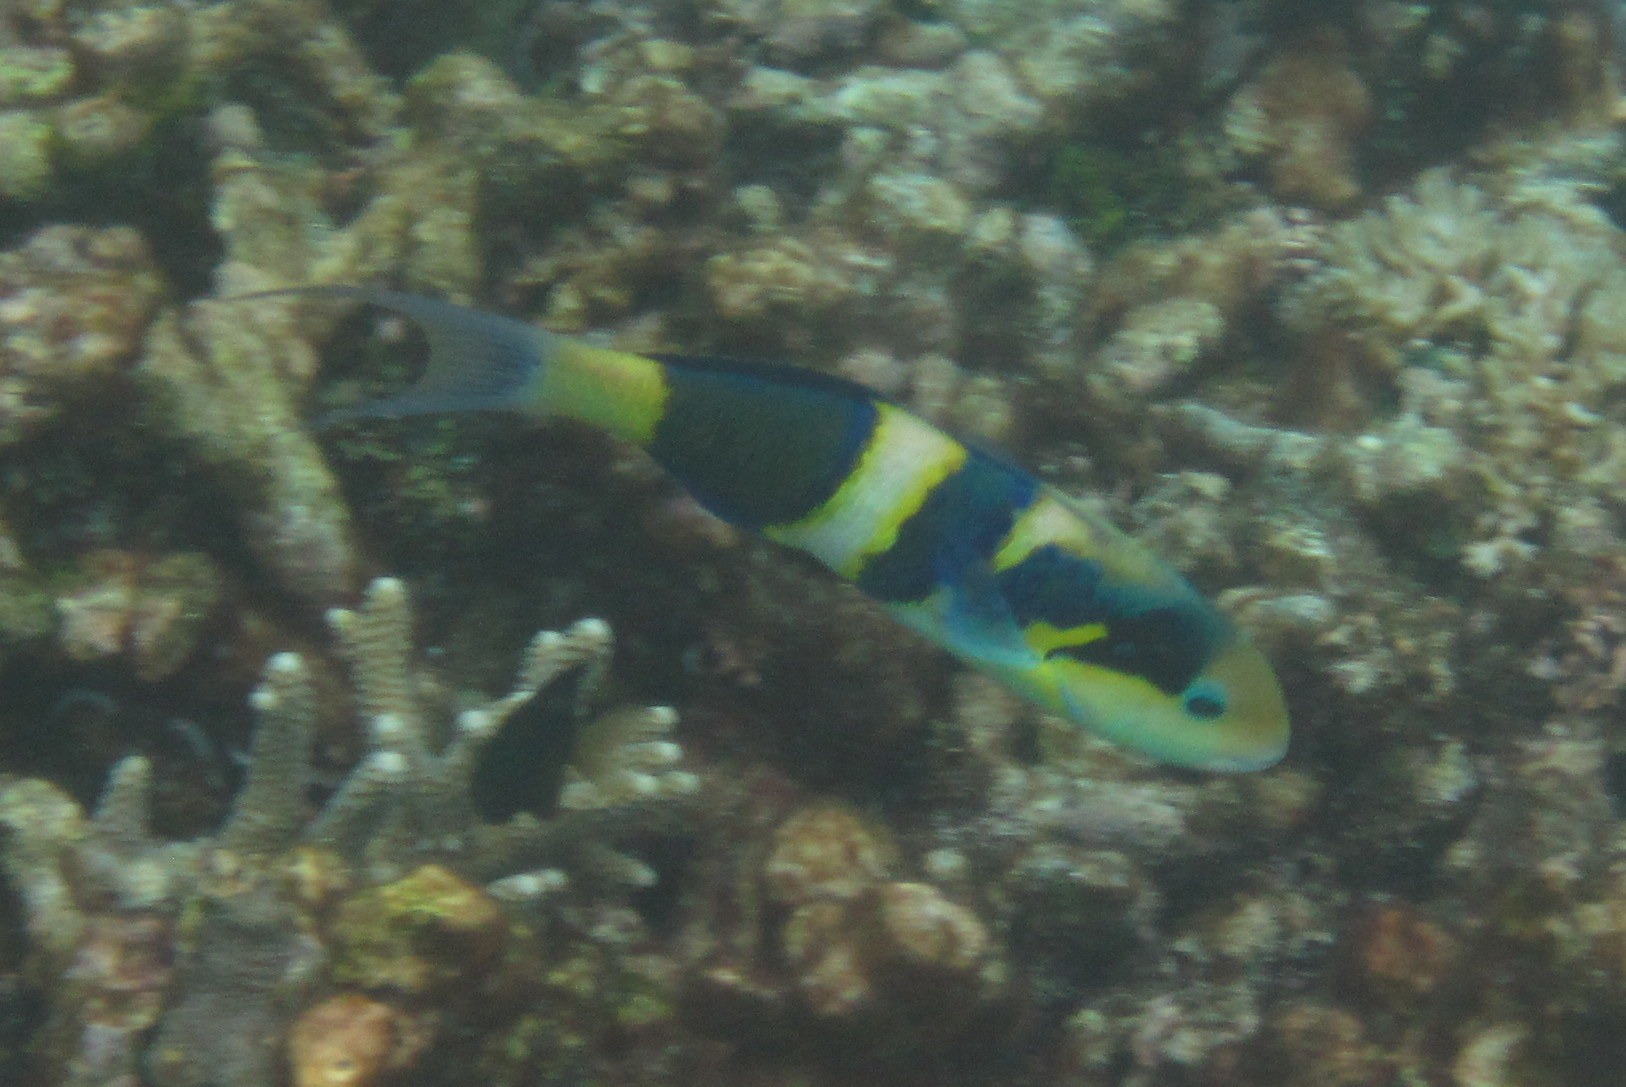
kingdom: Animalia
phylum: Chordata
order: Perciformes
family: Labridae
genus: Thalassoma
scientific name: Thalassoma nigrofasciatum
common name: Black-barred wrasse
